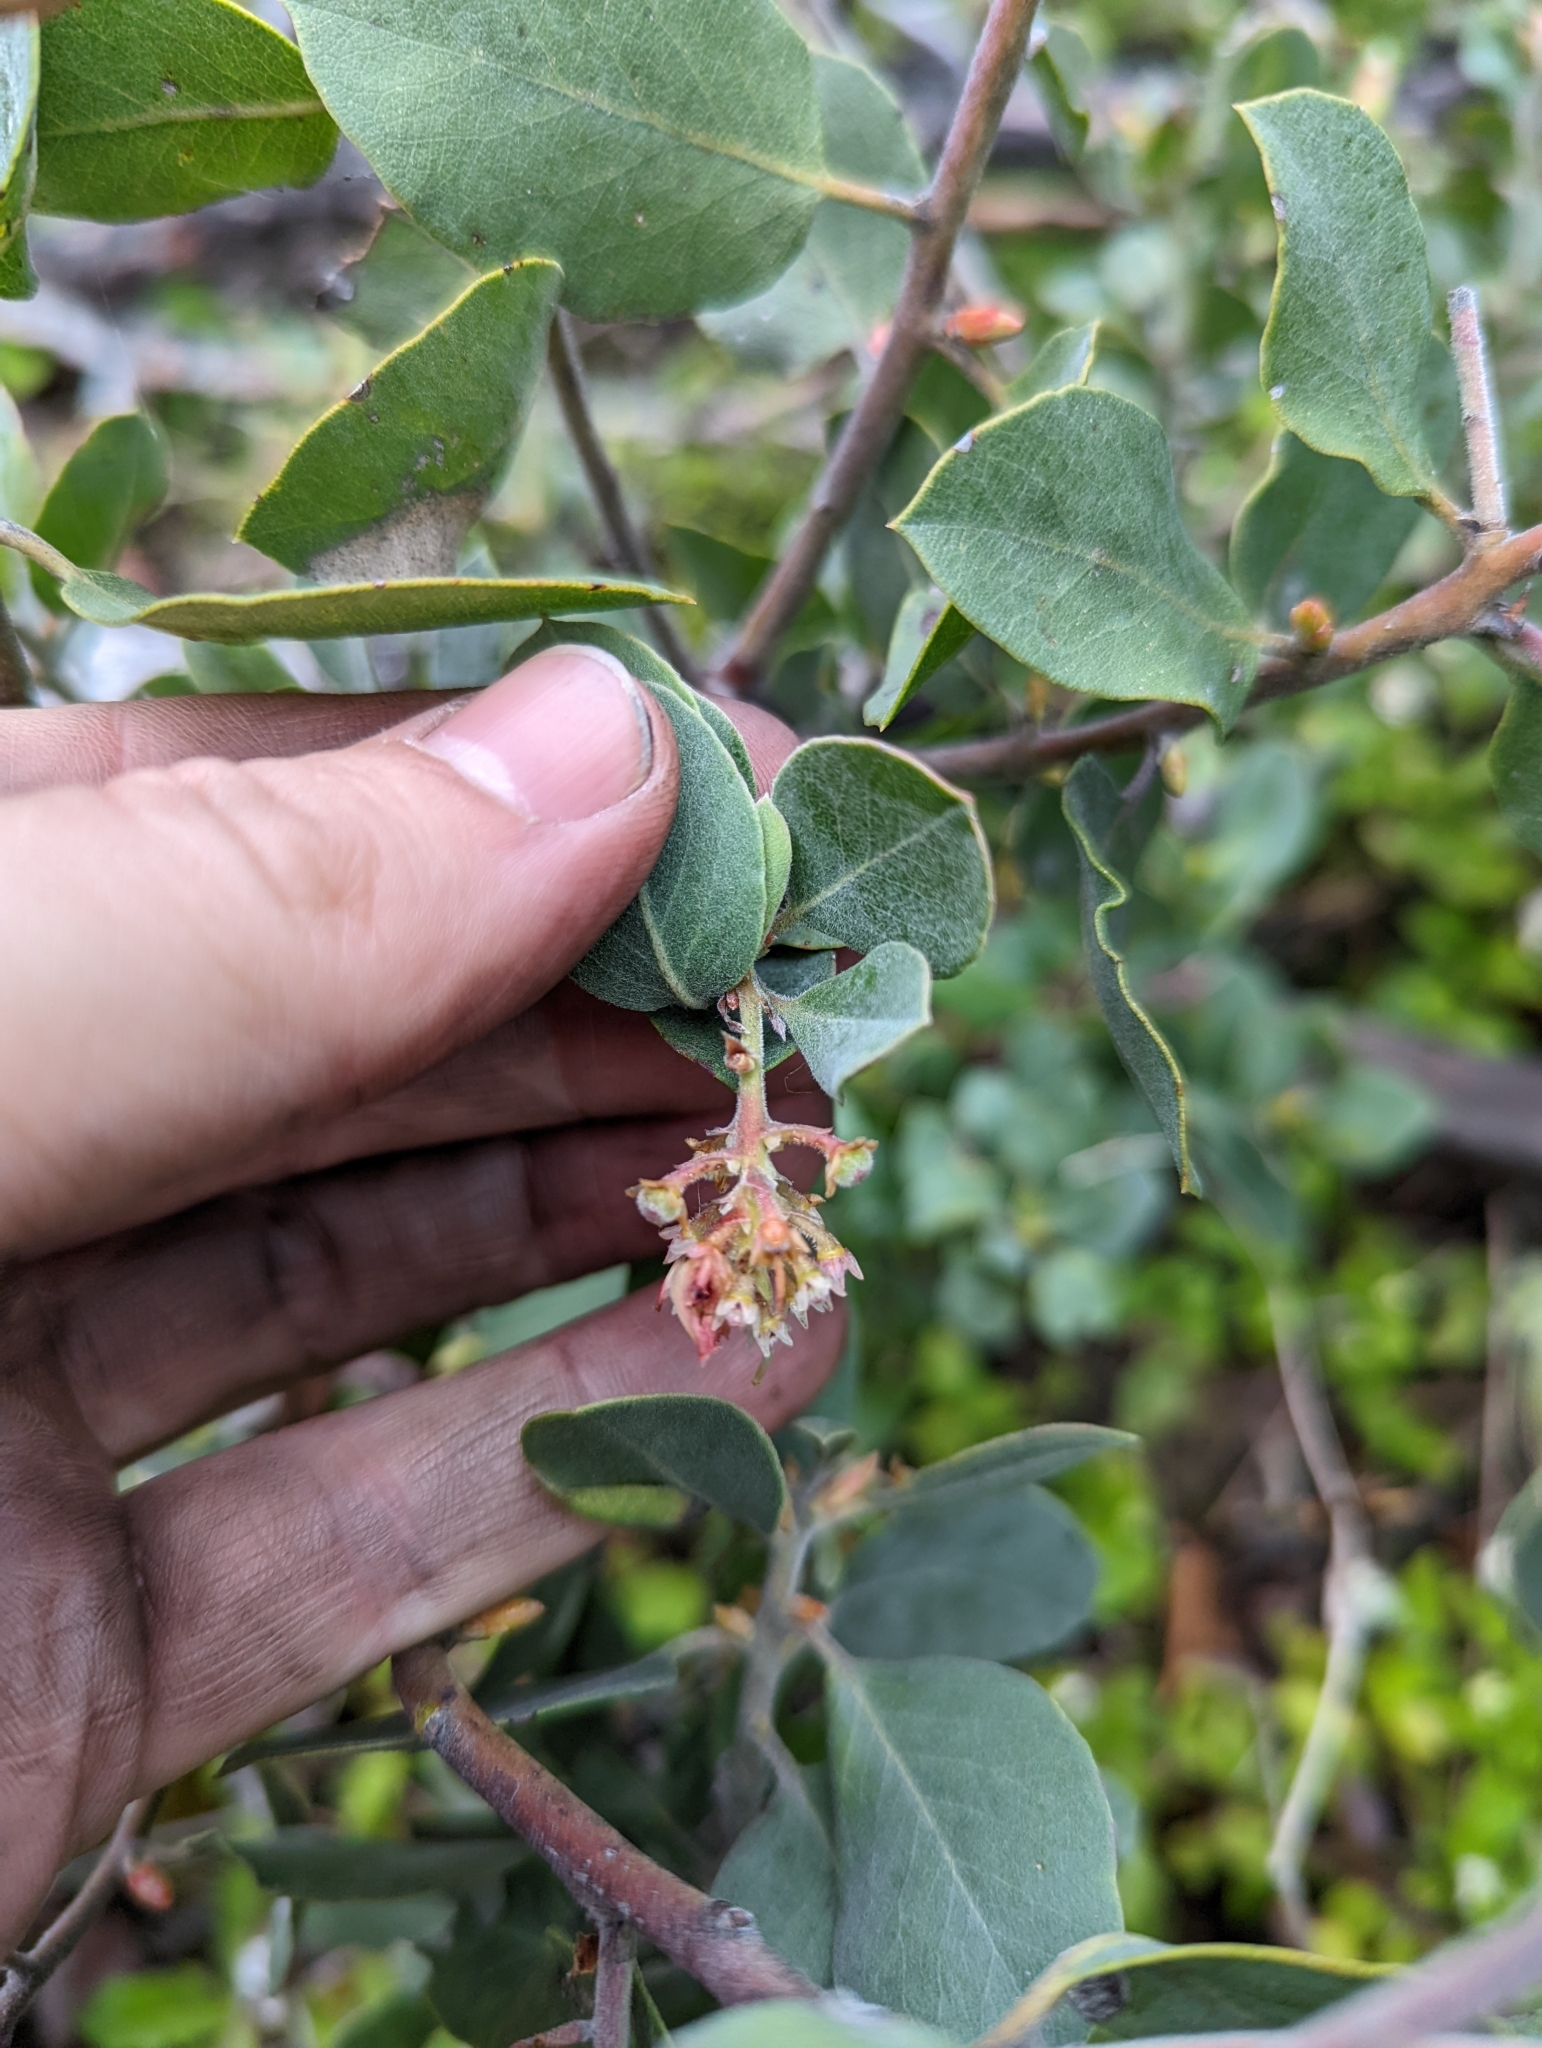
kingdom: Plantae
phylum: Tracheophyta
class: Magnoliopsida
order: Ericales
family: Ericaceae
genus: Arctostaphylos
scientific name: Arctostaphylos canescens
